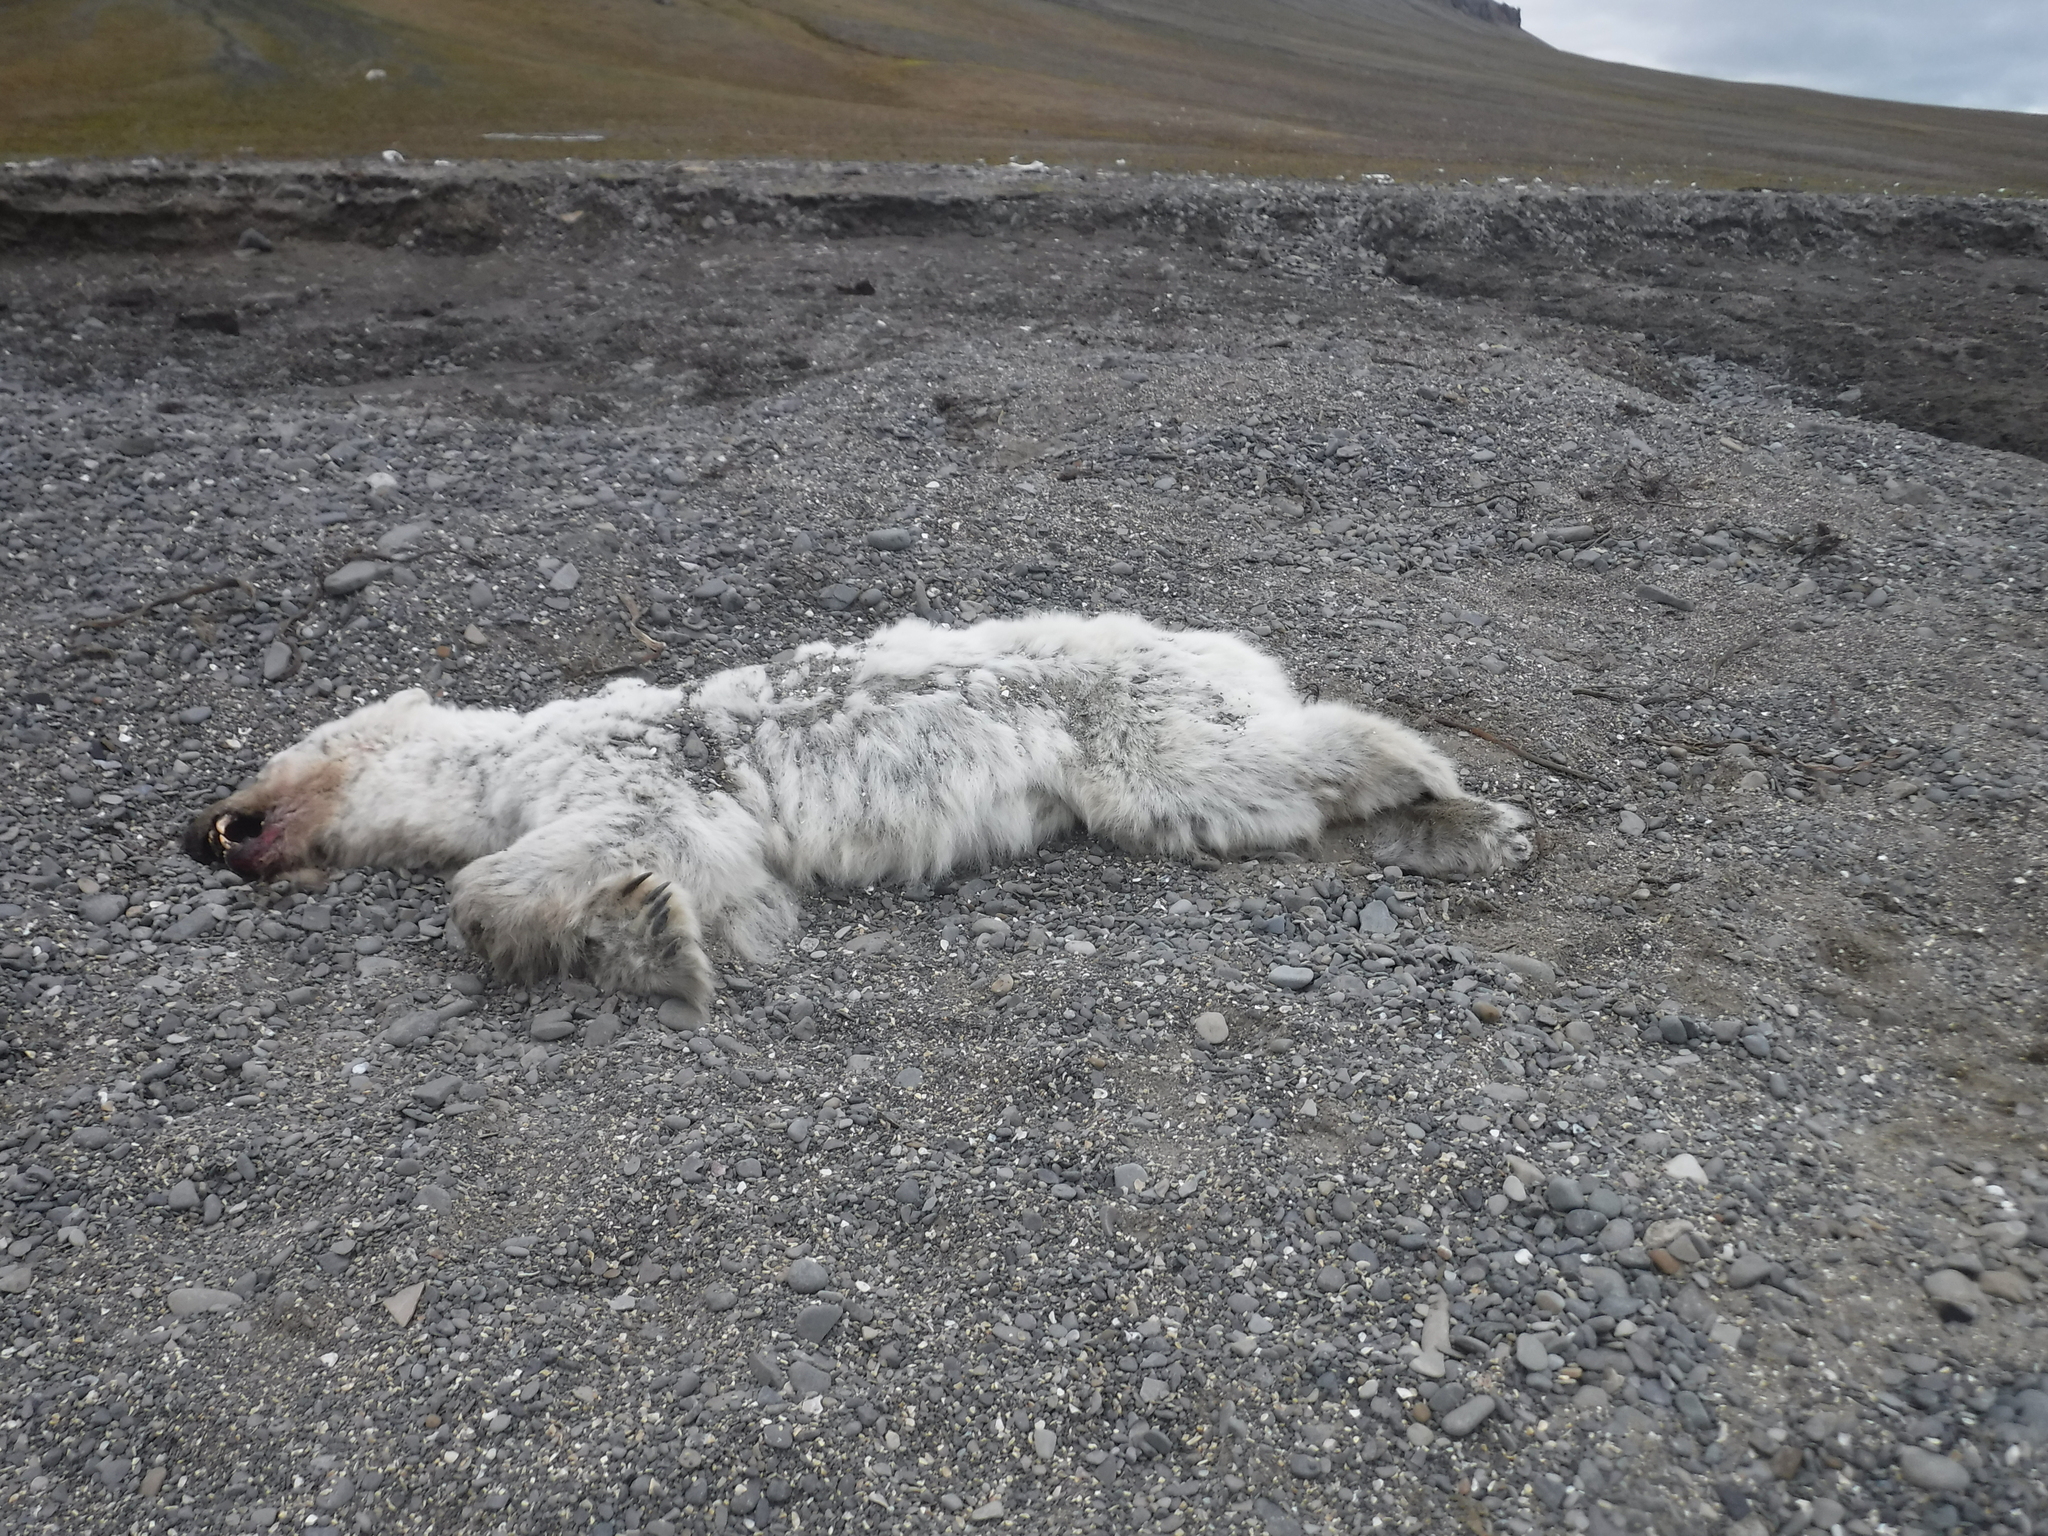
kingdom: Animalia
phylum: Chordata
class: Mammalia
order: Carnivora
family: Ursidae
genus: Ursus
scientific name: Ursus maritimus
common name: Polar bear
